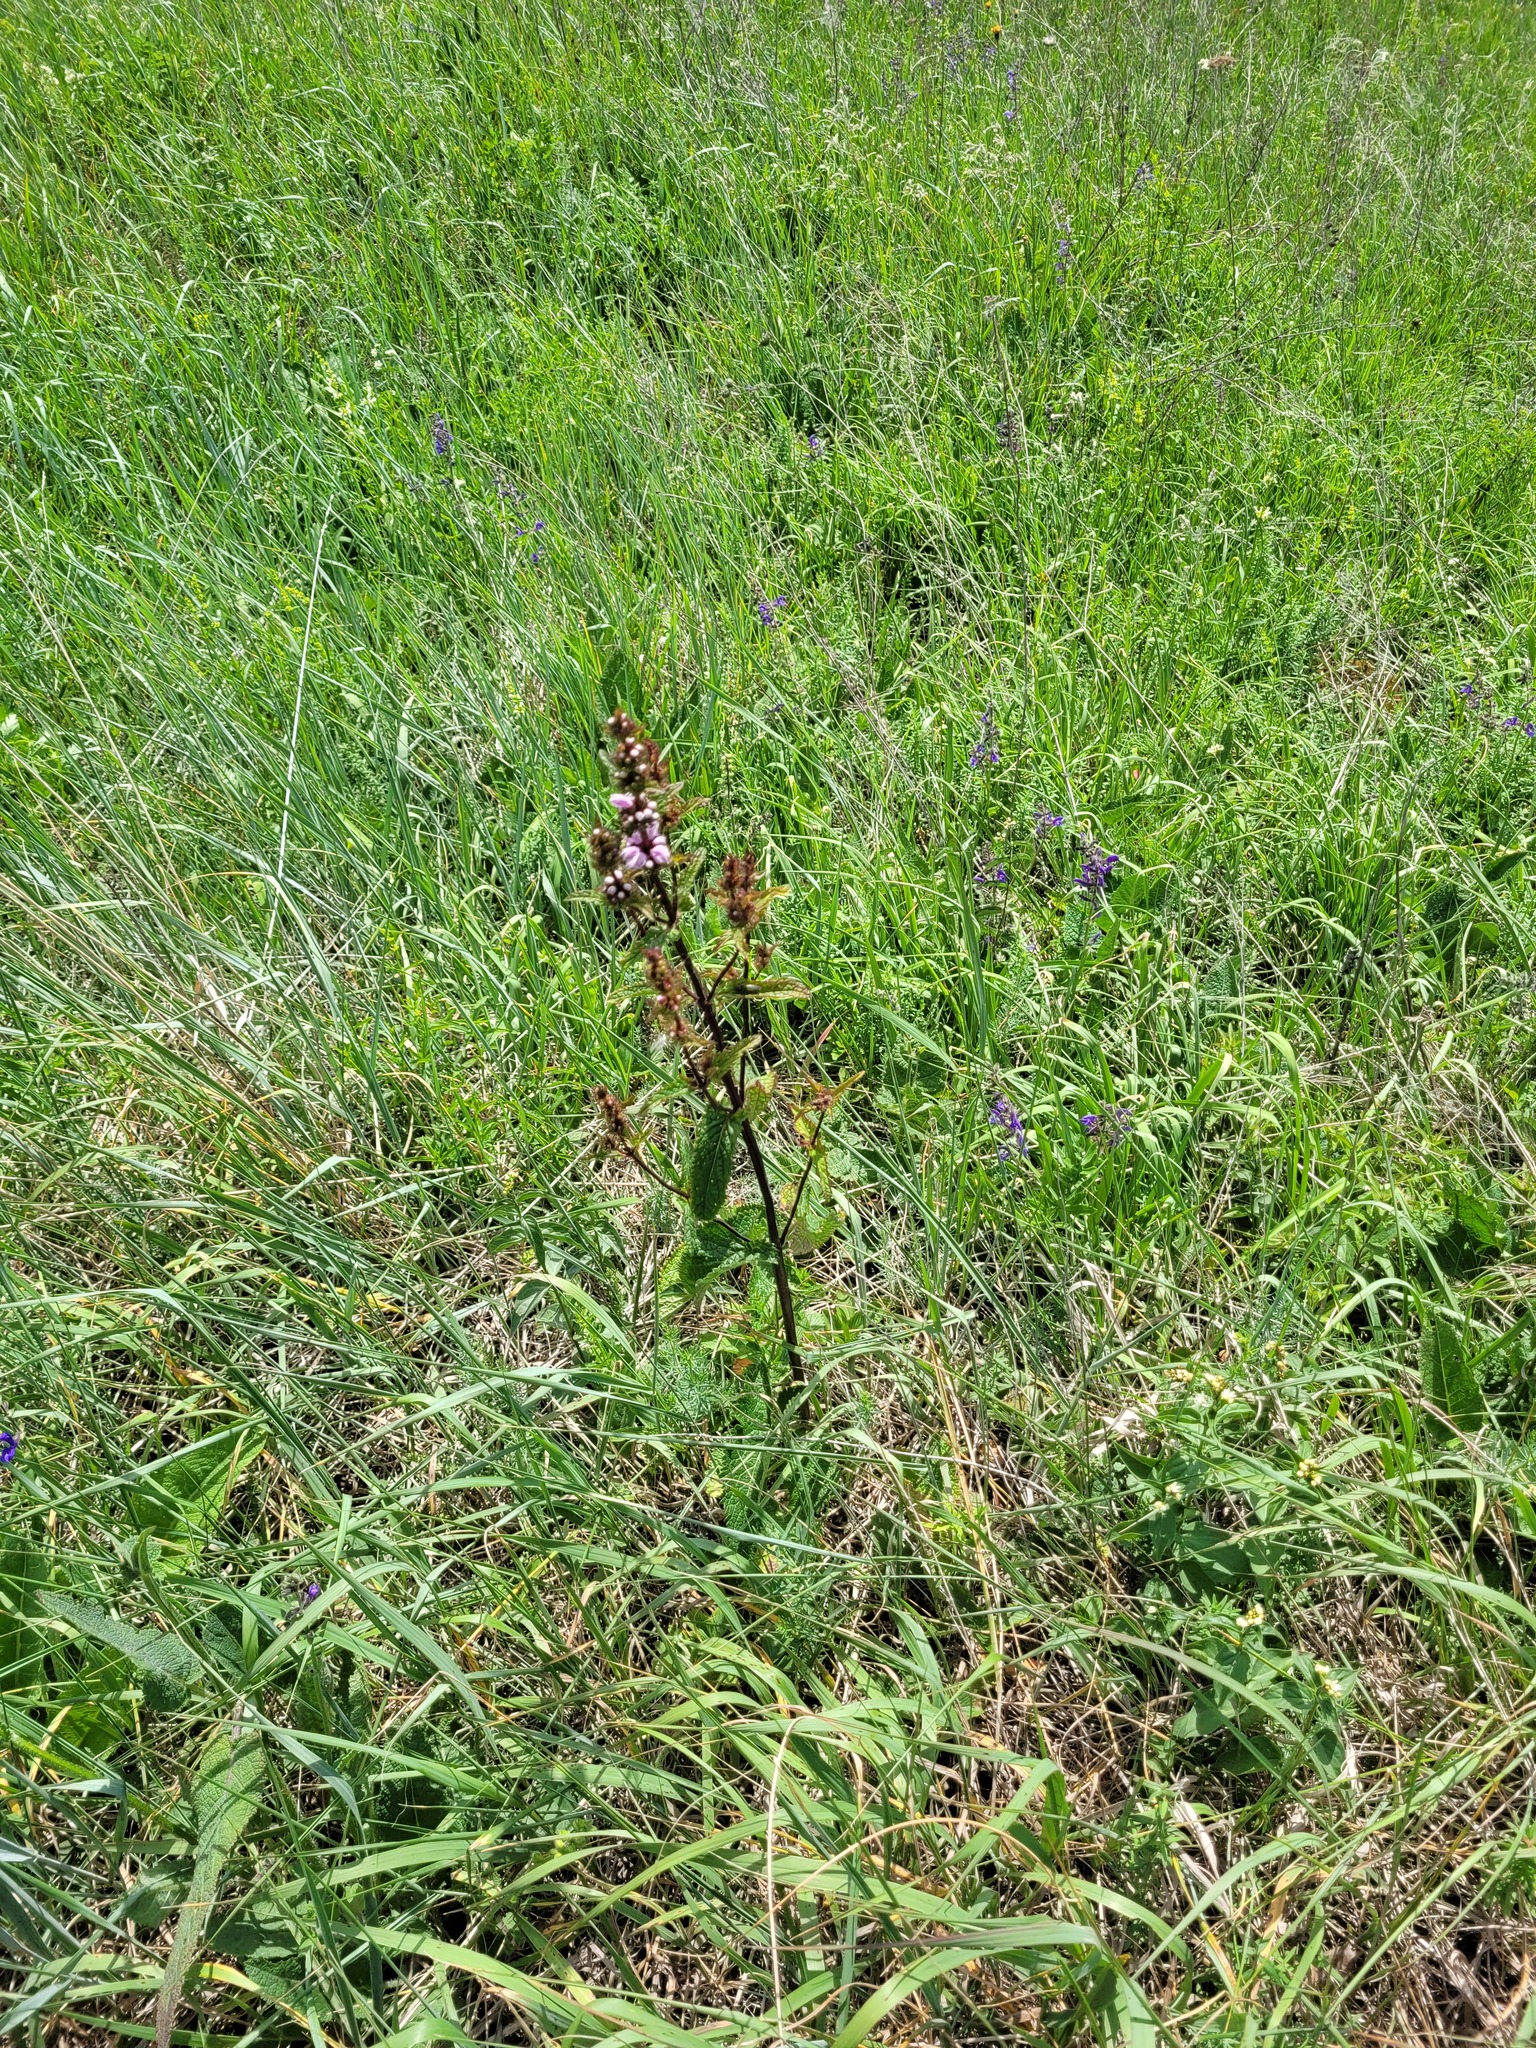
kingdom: Plantae
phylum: Tracheophyta
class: Magnoliopsida
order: Lamiales
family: Lamiaceae
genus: Phlomoides
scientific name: Phlomoides tuberosa
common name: Tuberous jerusalem sage
